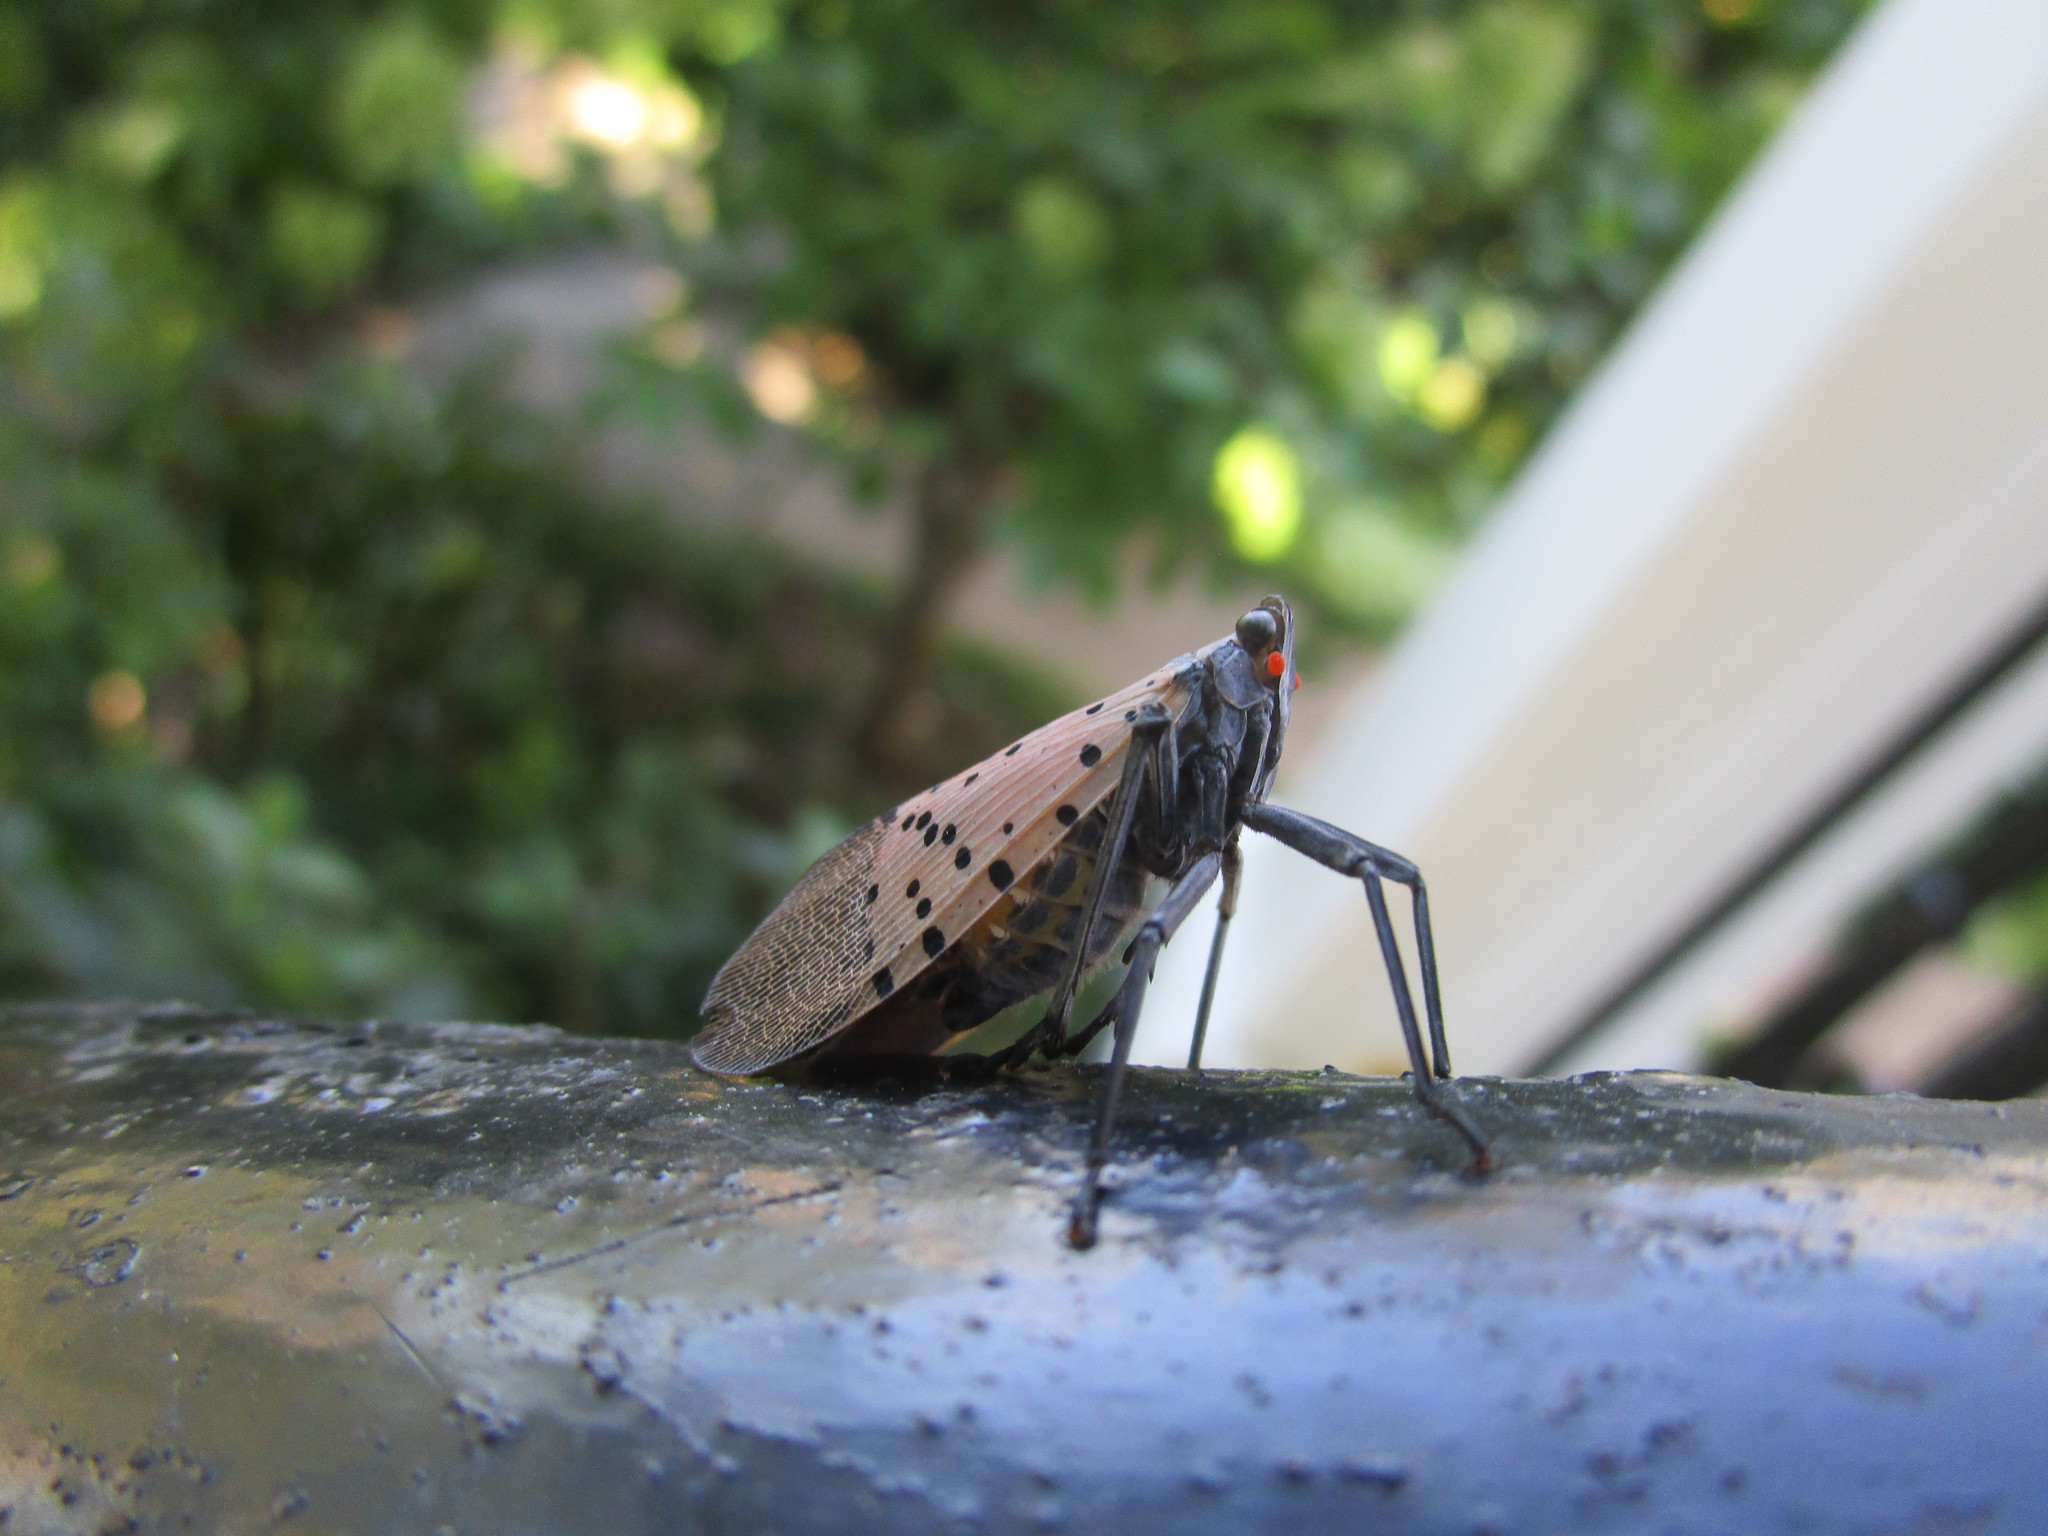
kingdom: Animalia
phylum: Arthropoda
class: Insecta
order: Hemiptera
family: Fulgoridae
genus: Lycorma
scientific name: Lycorma delicatula
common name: Spotted lanternfly
